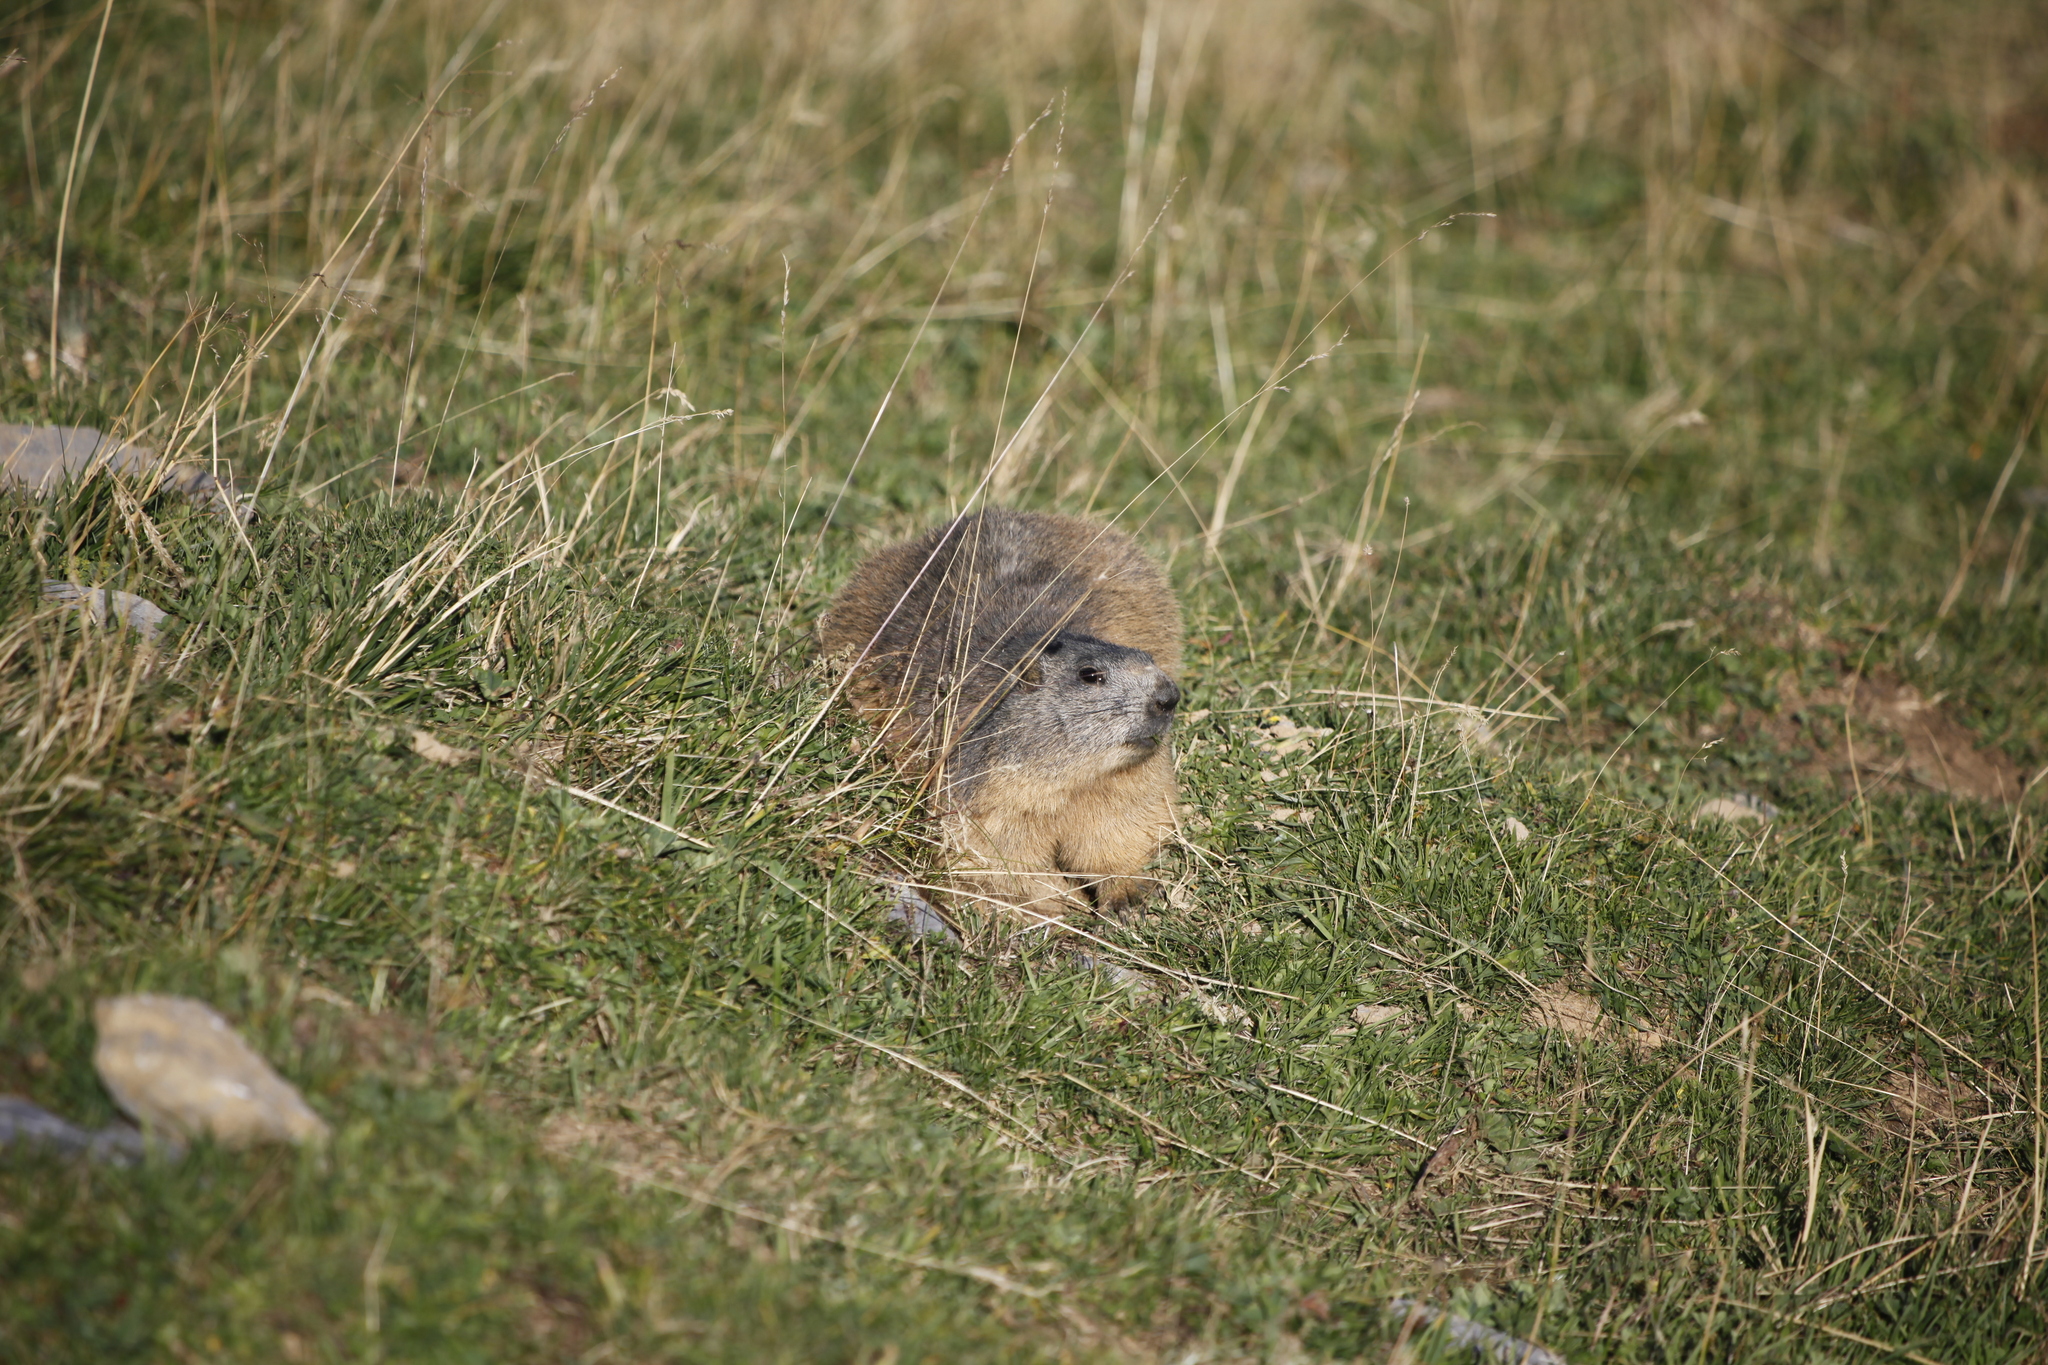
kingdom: Animalia
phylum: Chordata
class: Mammalia
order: Rodentia
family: Sciuridae
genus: Marmota
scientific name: Marmota marmota
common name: Alpine marmot
